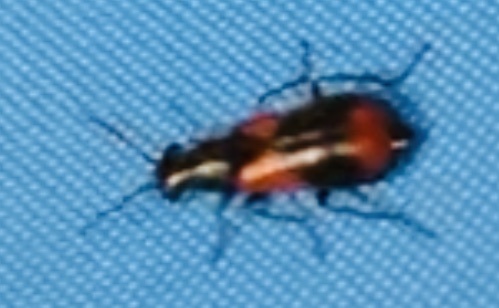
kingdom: Animalia
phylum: Arthropoda
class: Insecta
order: Coleoptera
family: Melyridae
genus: Anthocomus
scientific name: Anthocomus equestris
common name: Black-banded soft-winged flower beetle
